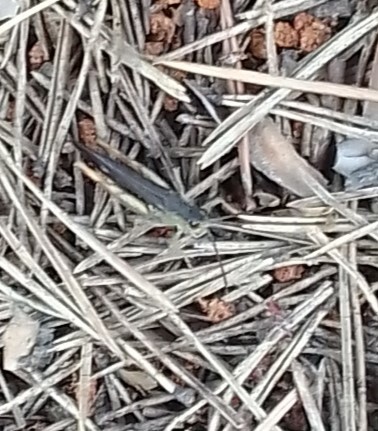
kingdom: Animalia
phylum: Arthropoda
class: Insecta
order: Orthoptera
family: Acrididae
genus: Glyptobothrus
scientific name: Glyptobothrus
